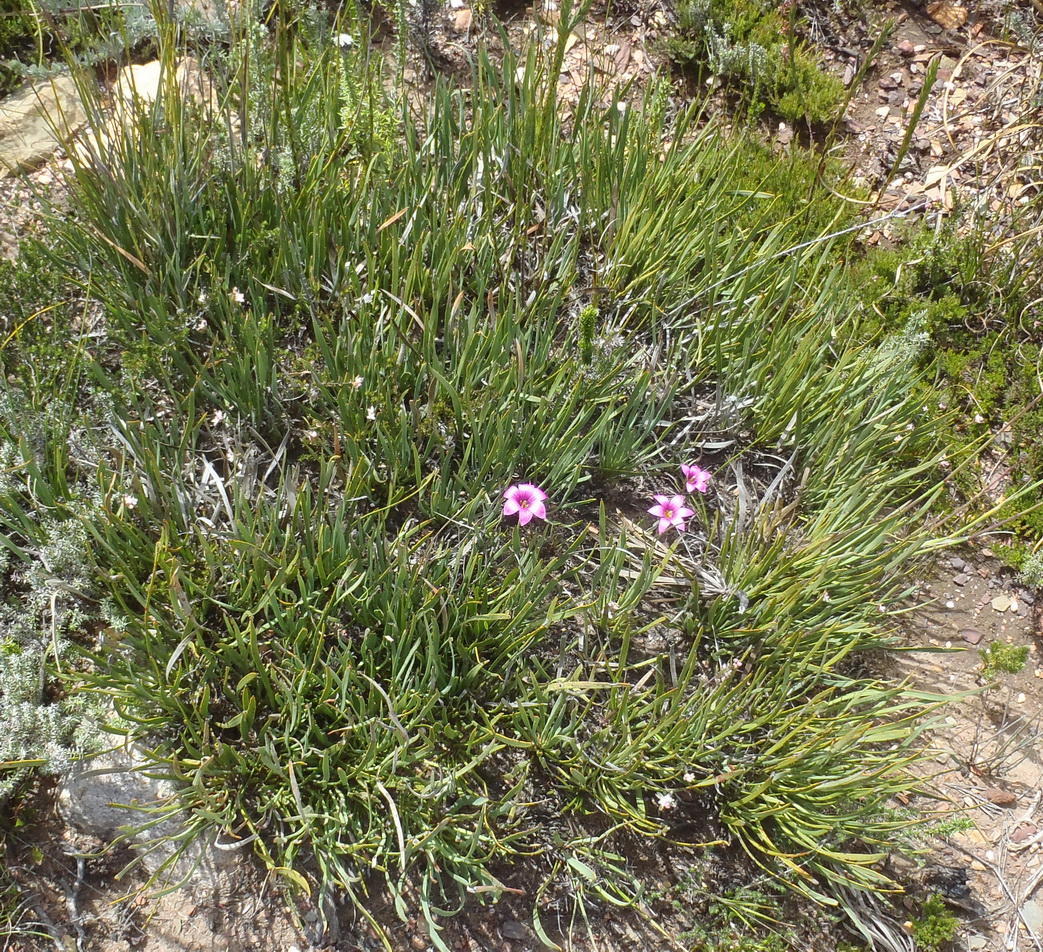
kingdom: Plantae
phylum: Tracheophyta
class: Magnoliopsida
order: Proteales
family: Proteaceae
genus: Protea
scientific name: Protea montana
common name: Swartberg sugarbush
